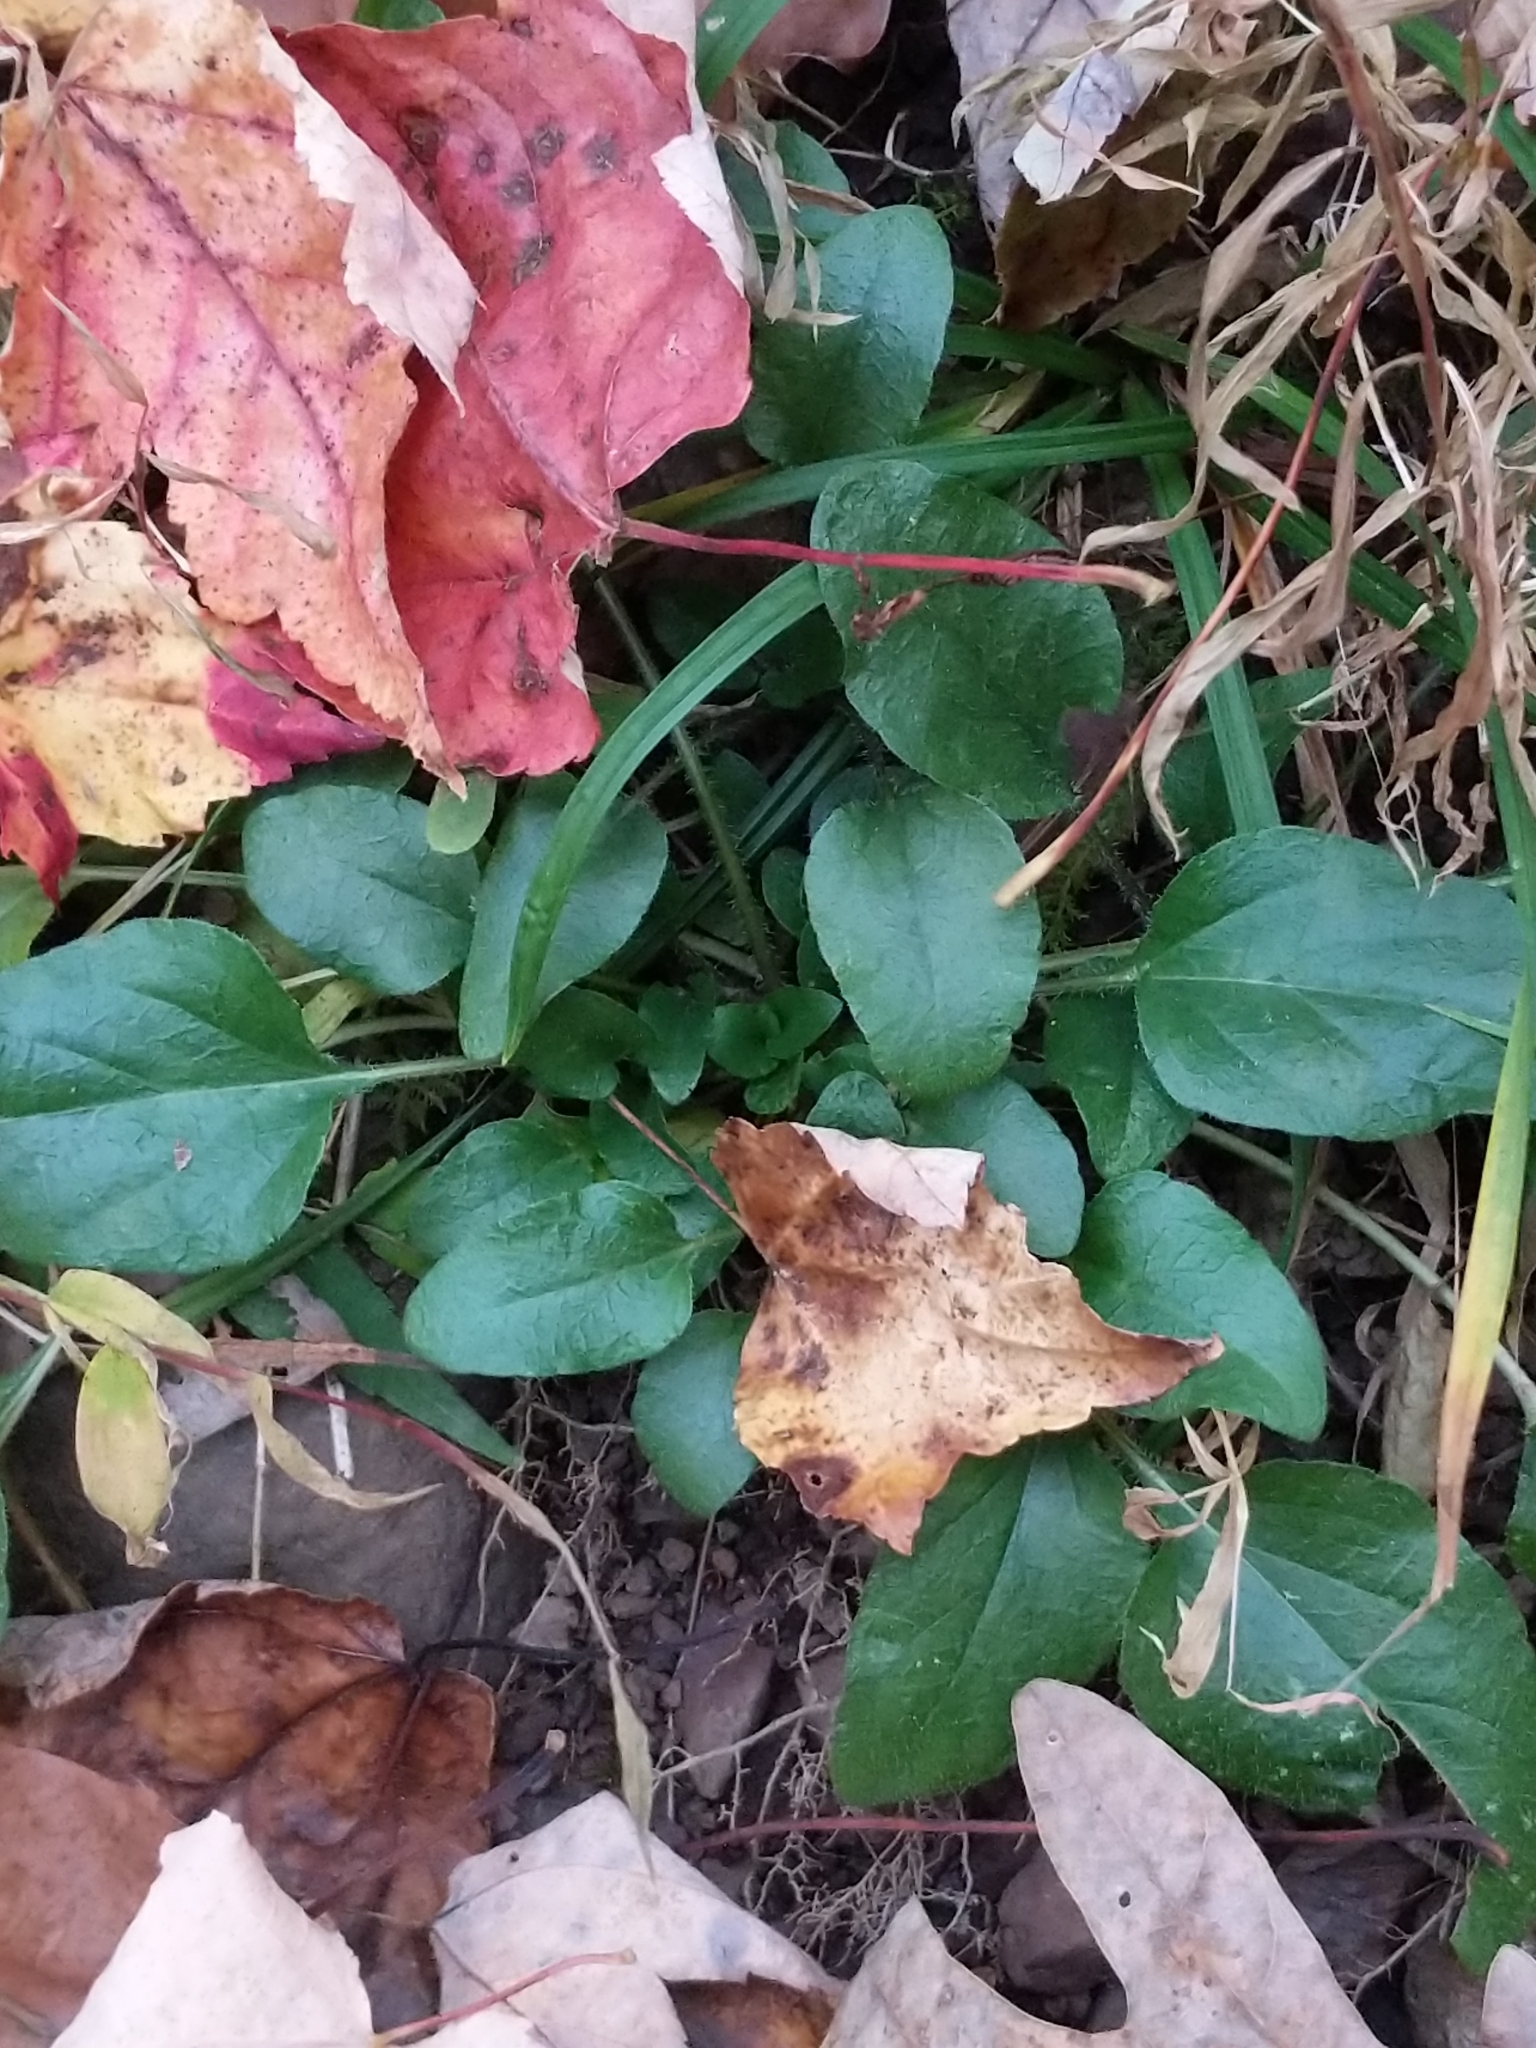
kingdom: Plantae
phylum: Tracheophyta
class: Magnoliopsida
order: Lamiales
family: Lamiaceae
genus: Prunella
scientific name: Prunella vulgaris
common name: Heal-all
